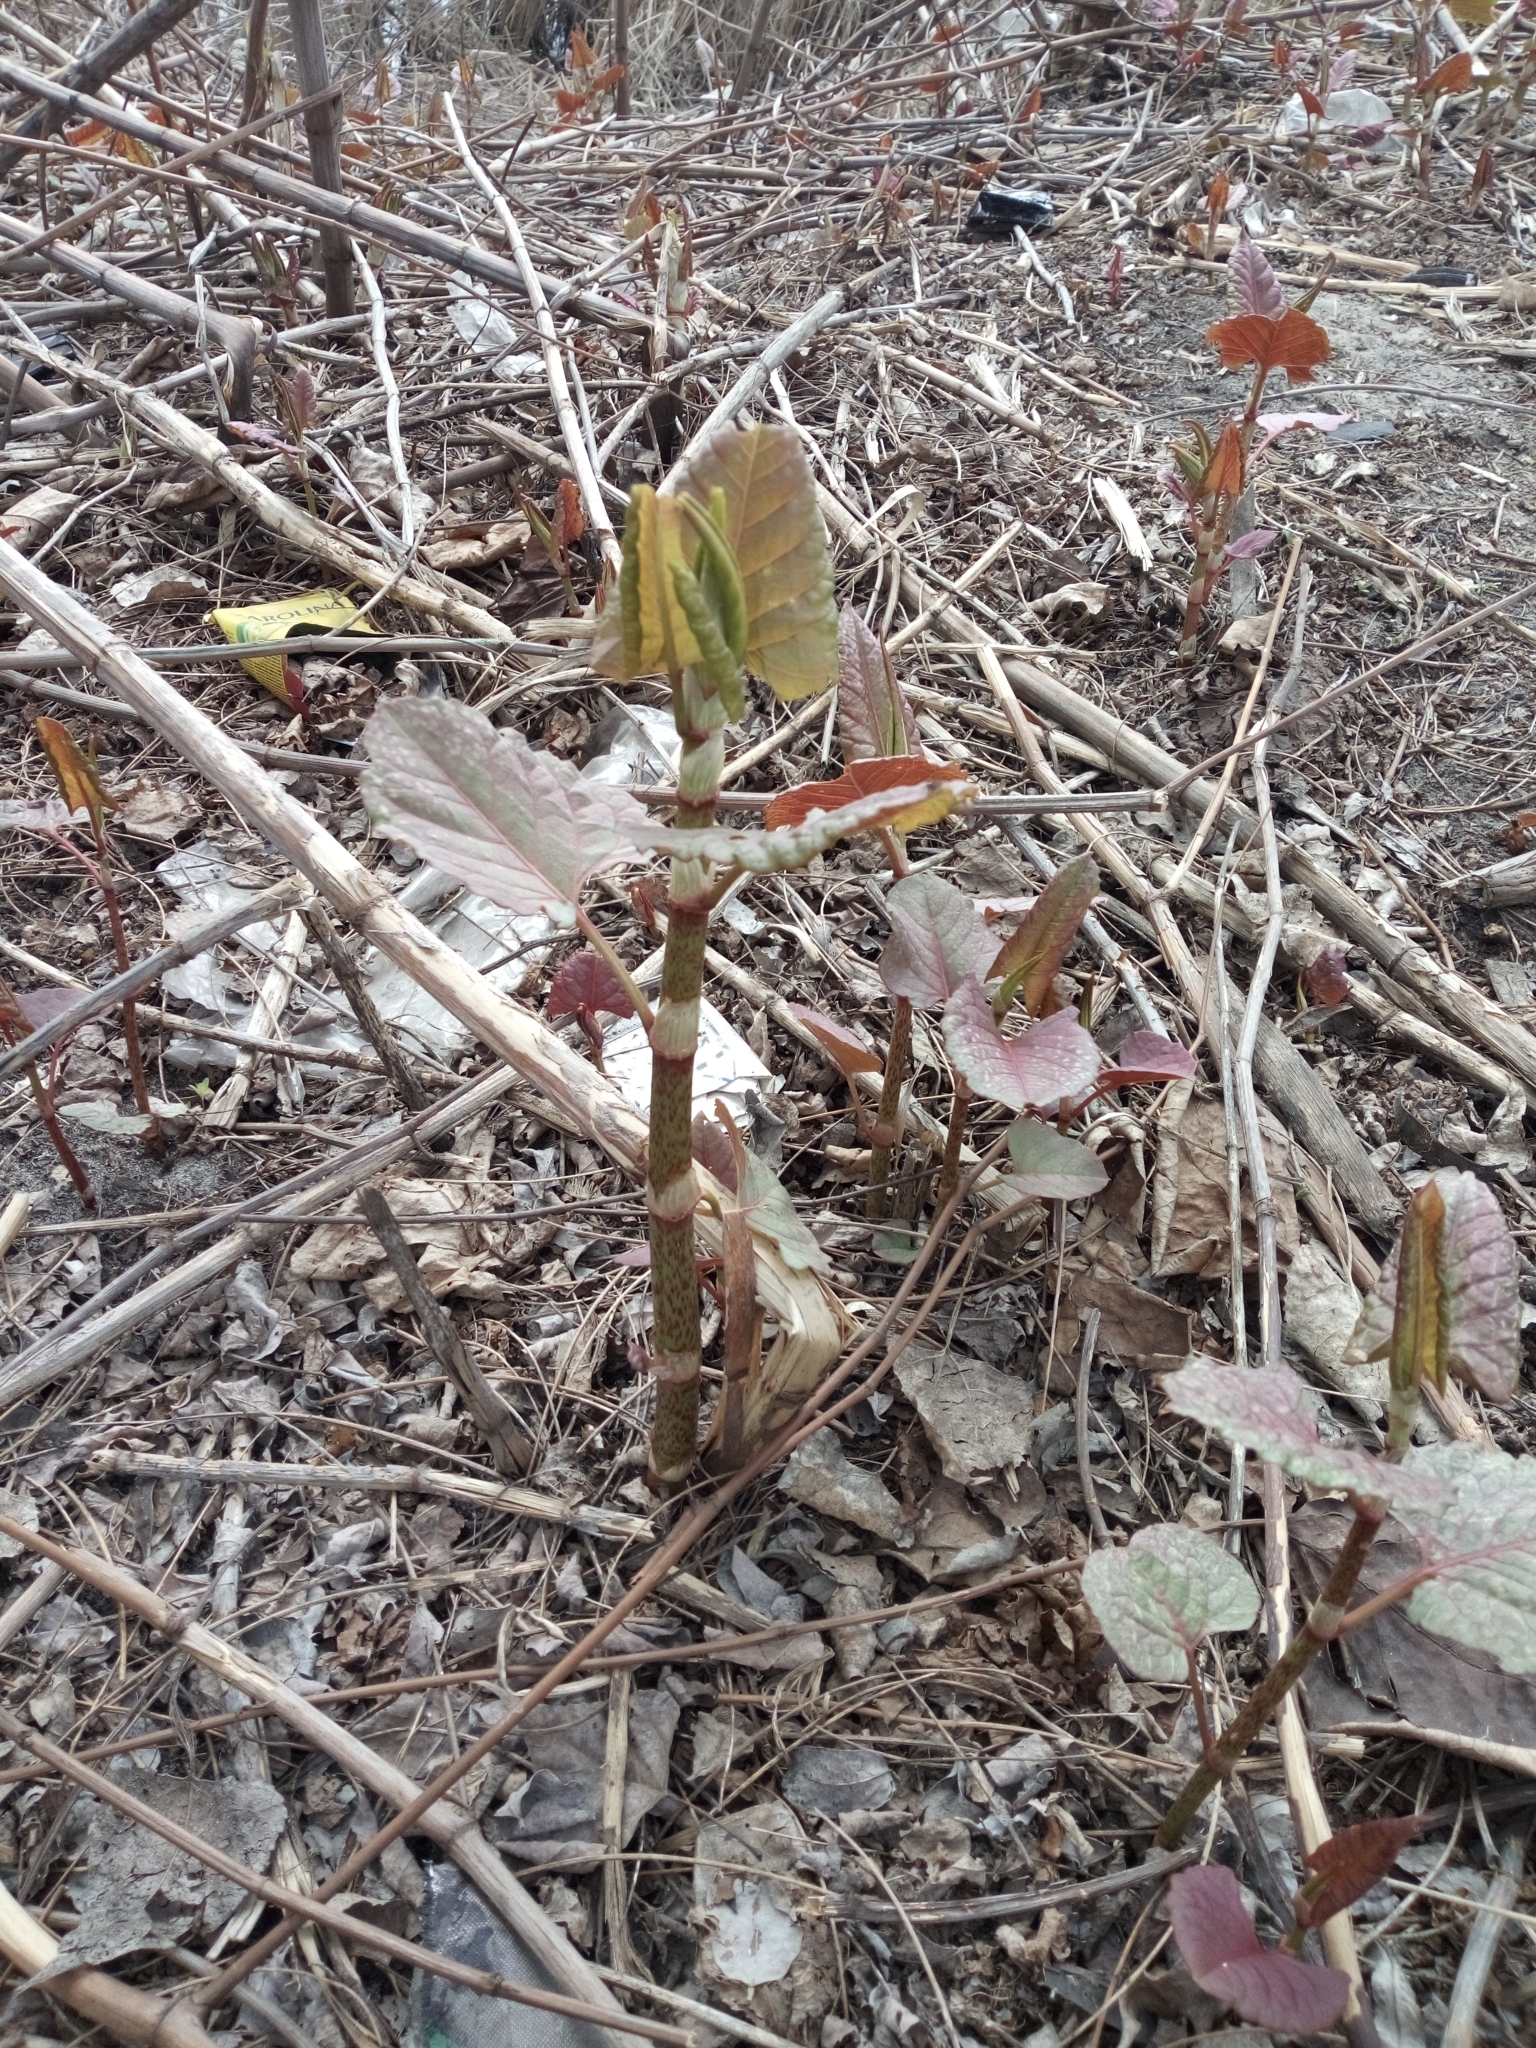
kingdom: Plantae
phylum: Tracheophyta
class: Magnoliopsida
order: Caryophyllales
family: Polygonaceae
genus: Reynoutria
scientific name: Reynoutria bohemica
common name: Bohemian knotweed
